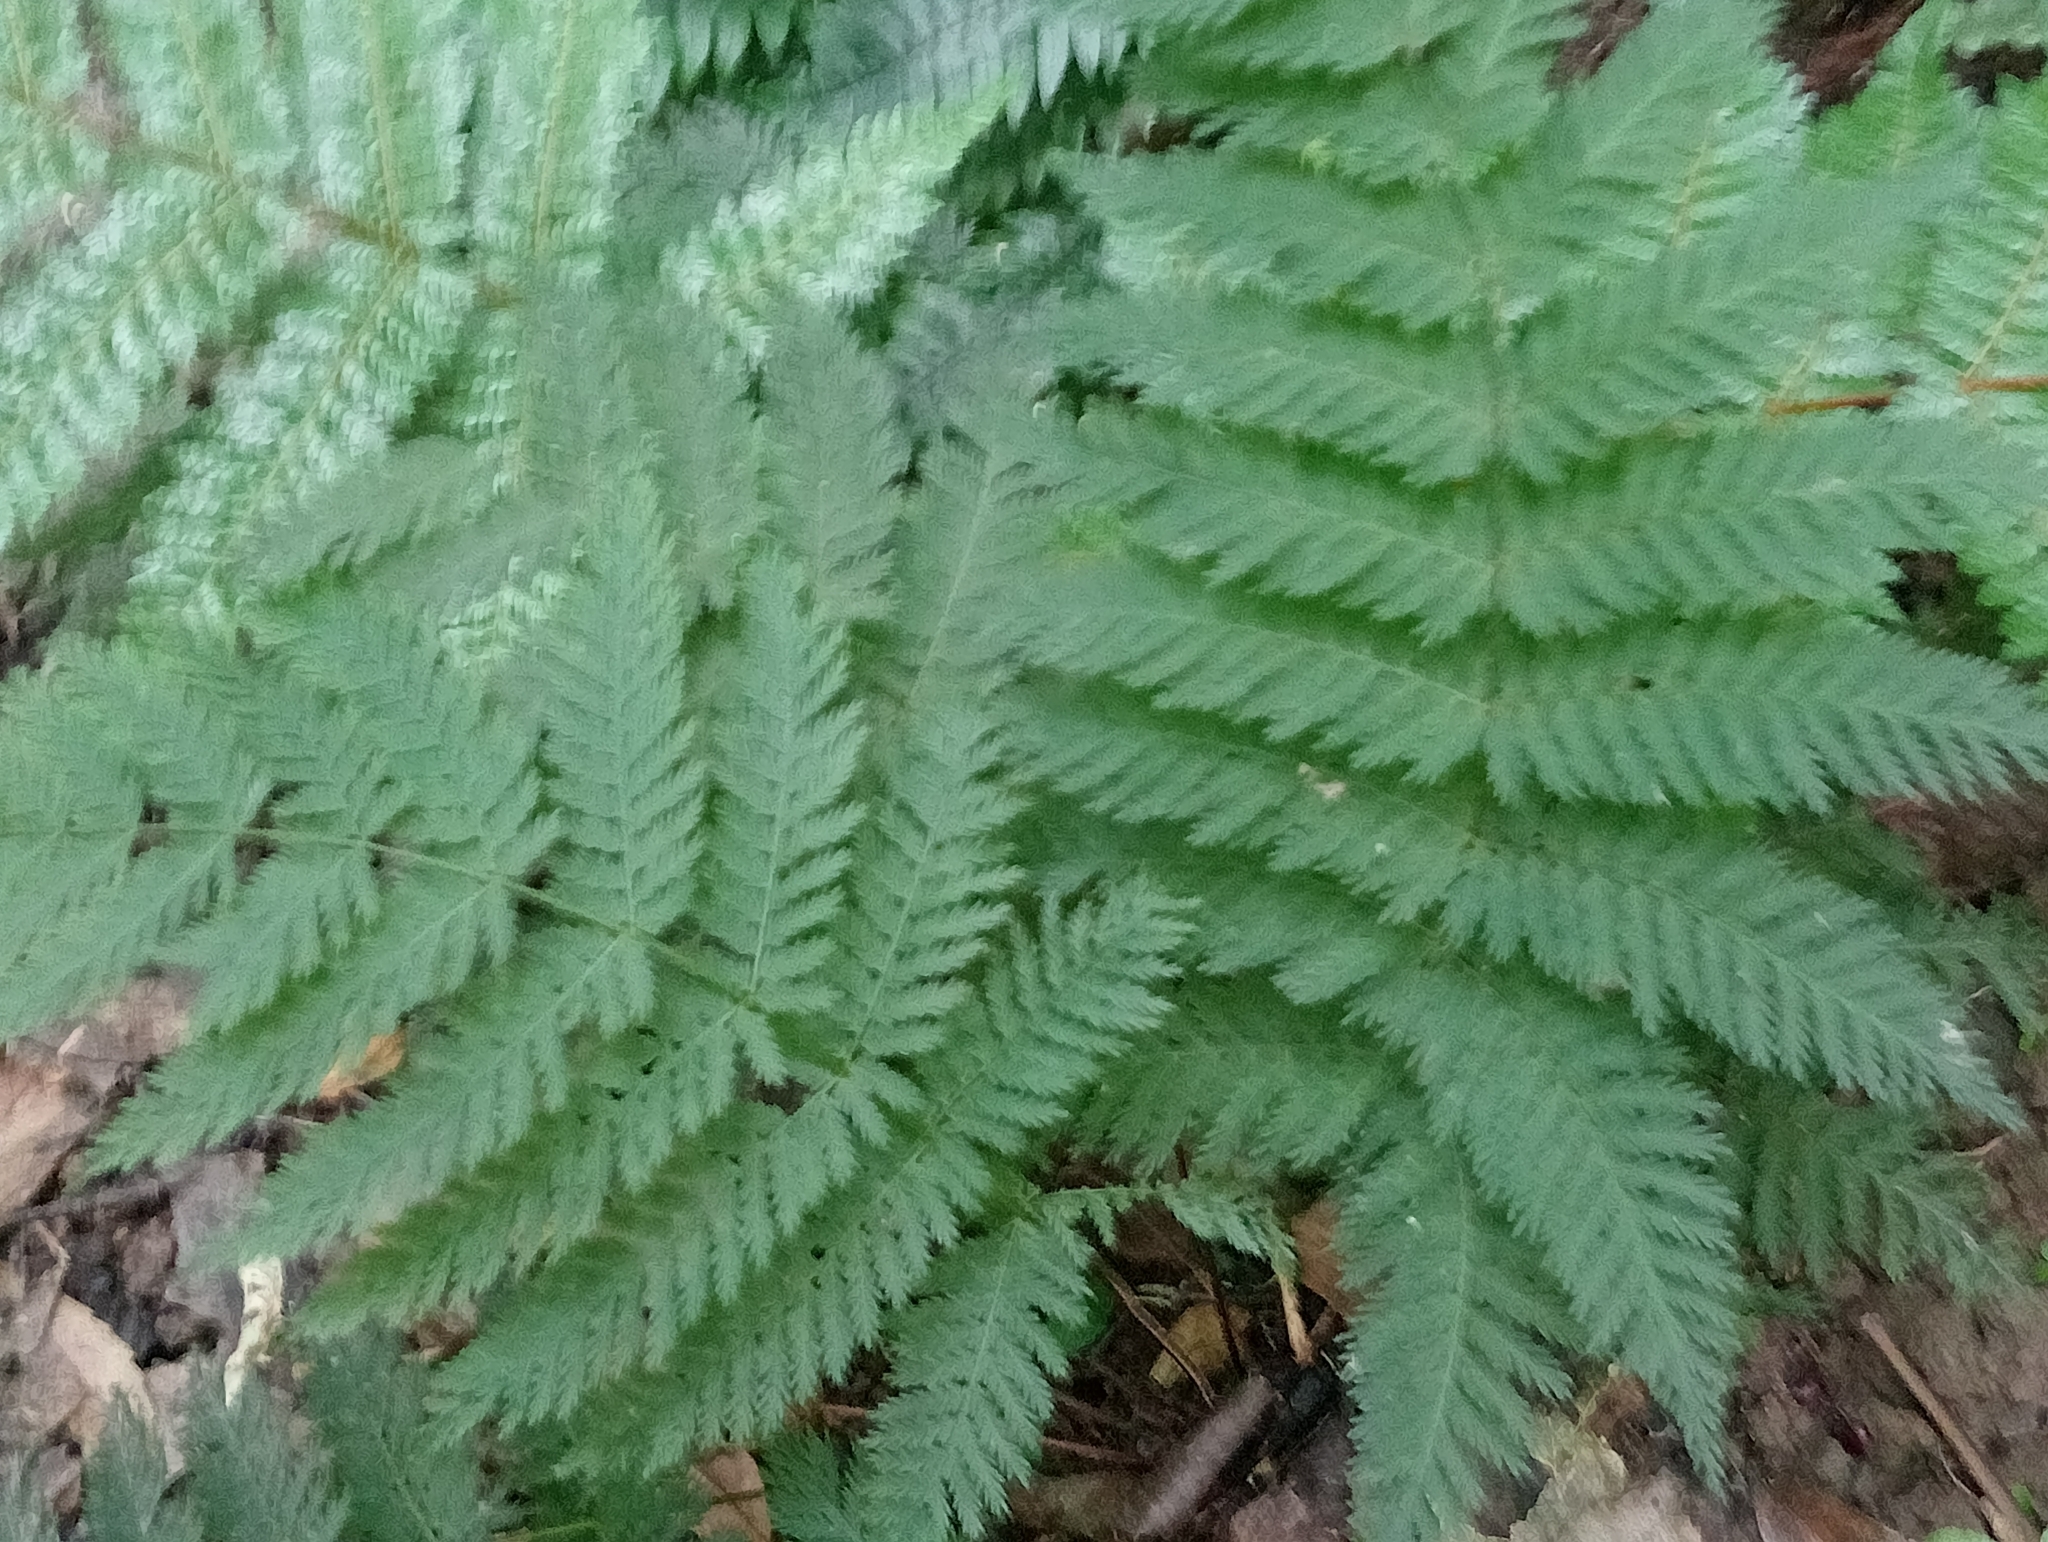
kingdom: Plantae
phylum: Tracheophyta
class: Polypodiopsida
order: Osmundales
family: Osmundaceae
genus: Leptopteris
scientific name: Leptopteris hymenophylloides
